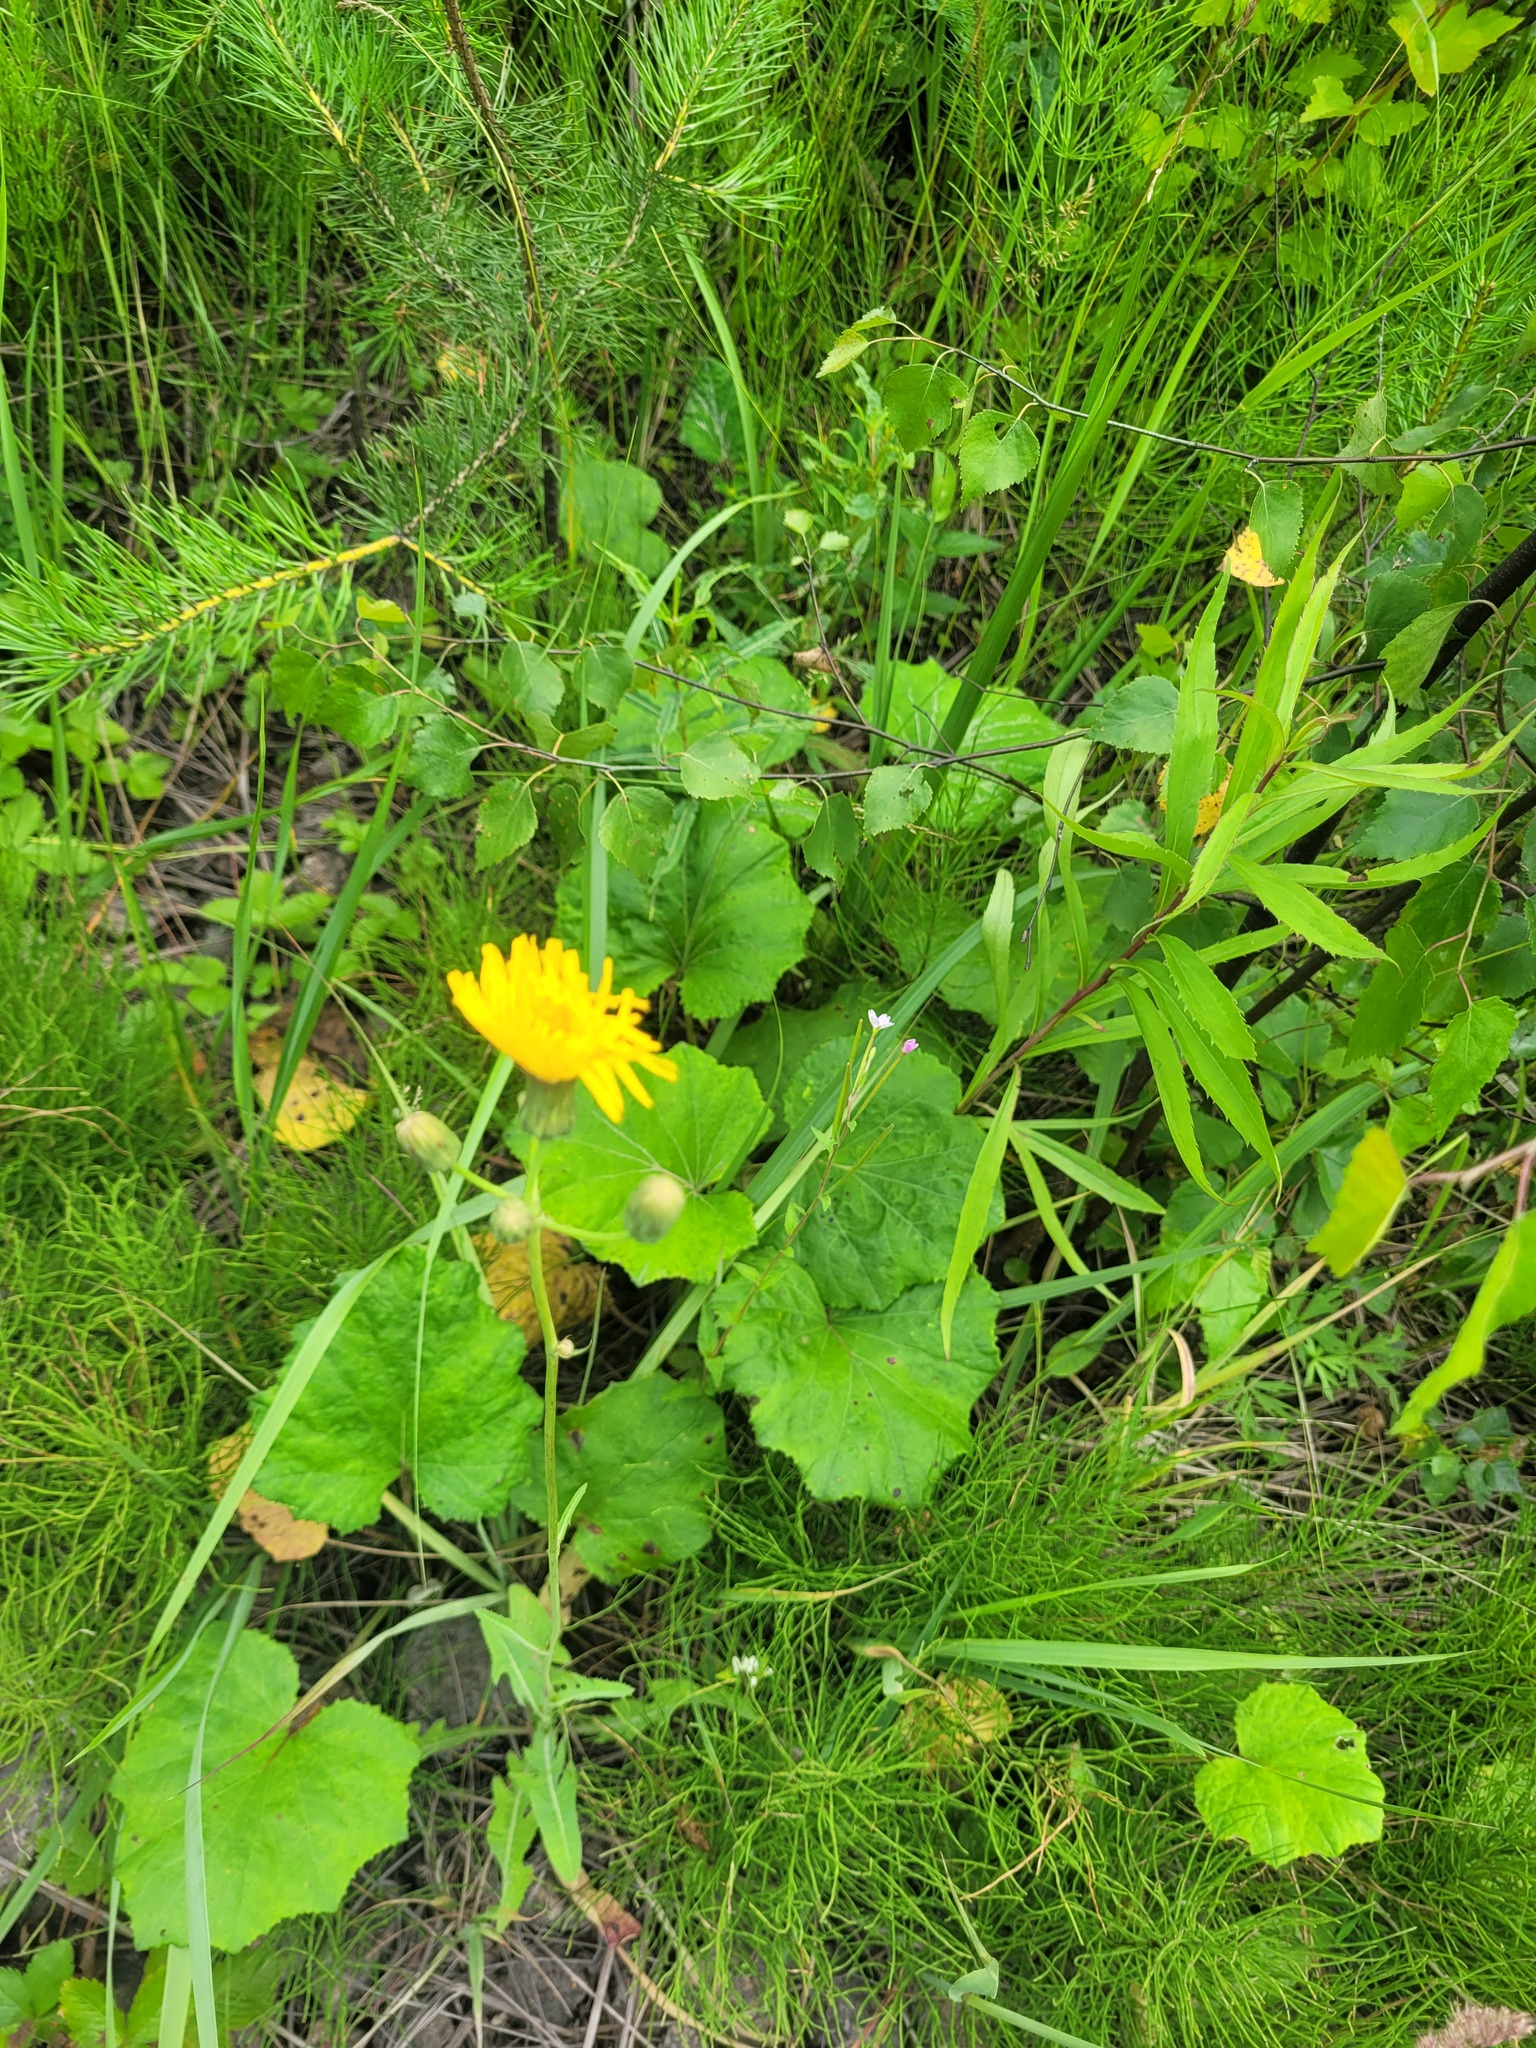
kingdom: Plantae
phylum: Tracheophyta
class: Magnoliopsida
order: Asterales
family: Asteraceae
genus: Sonchus
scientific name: Sonchus arvensis
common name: Perennial sow-thistle
